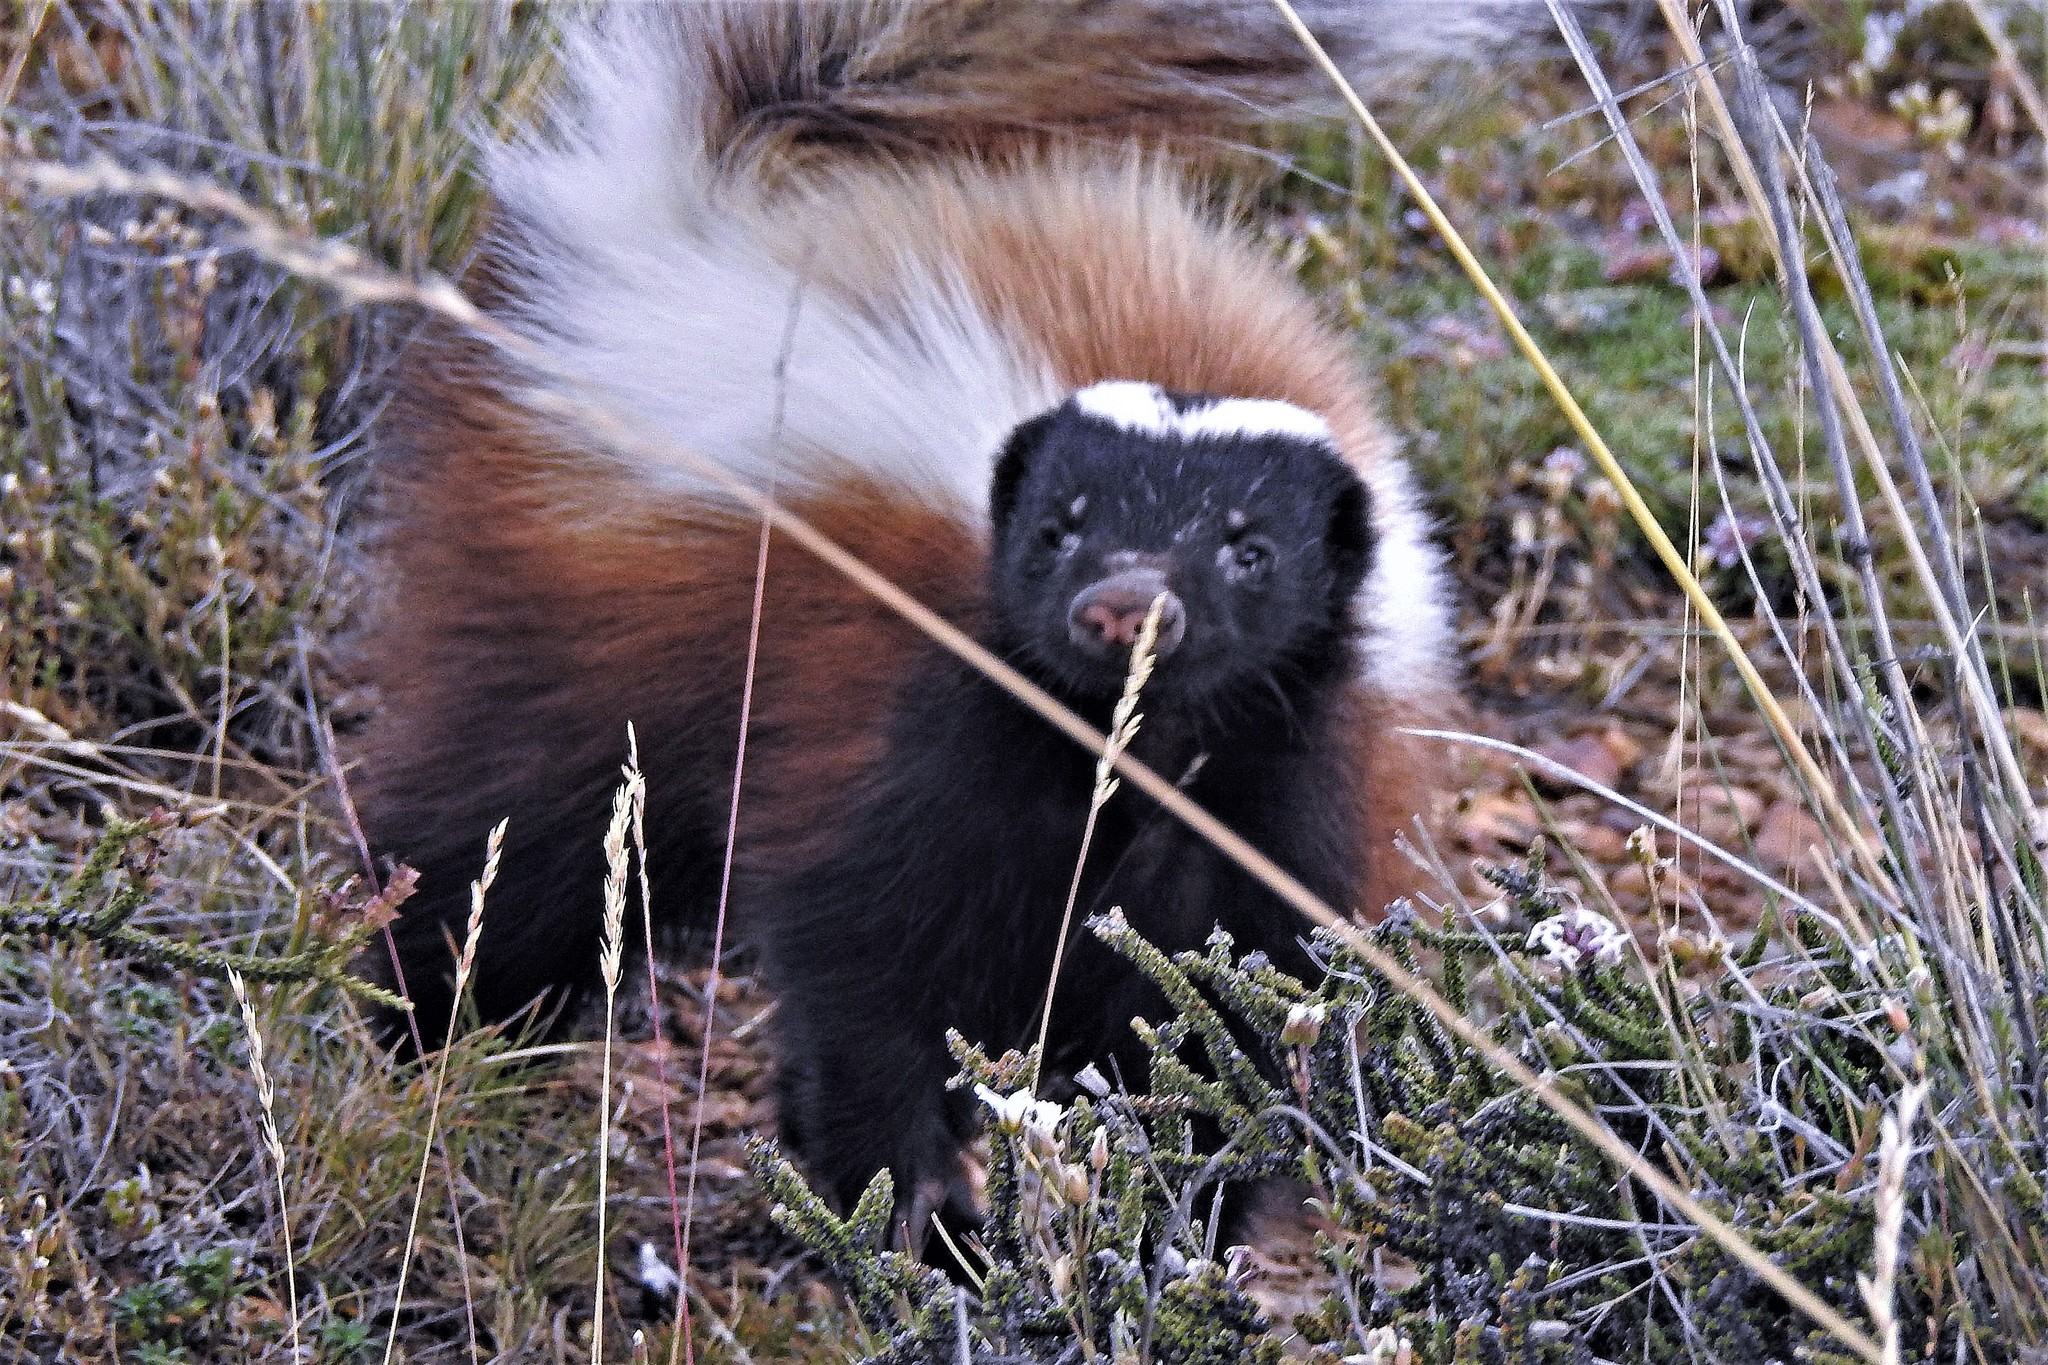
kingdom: Animalia
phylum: Chordata
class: Mammalia
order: Carnivora
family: Mephitidae
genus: Conepatus
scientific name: Conepatus chinga
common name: Molina's hog-nosed skunk
